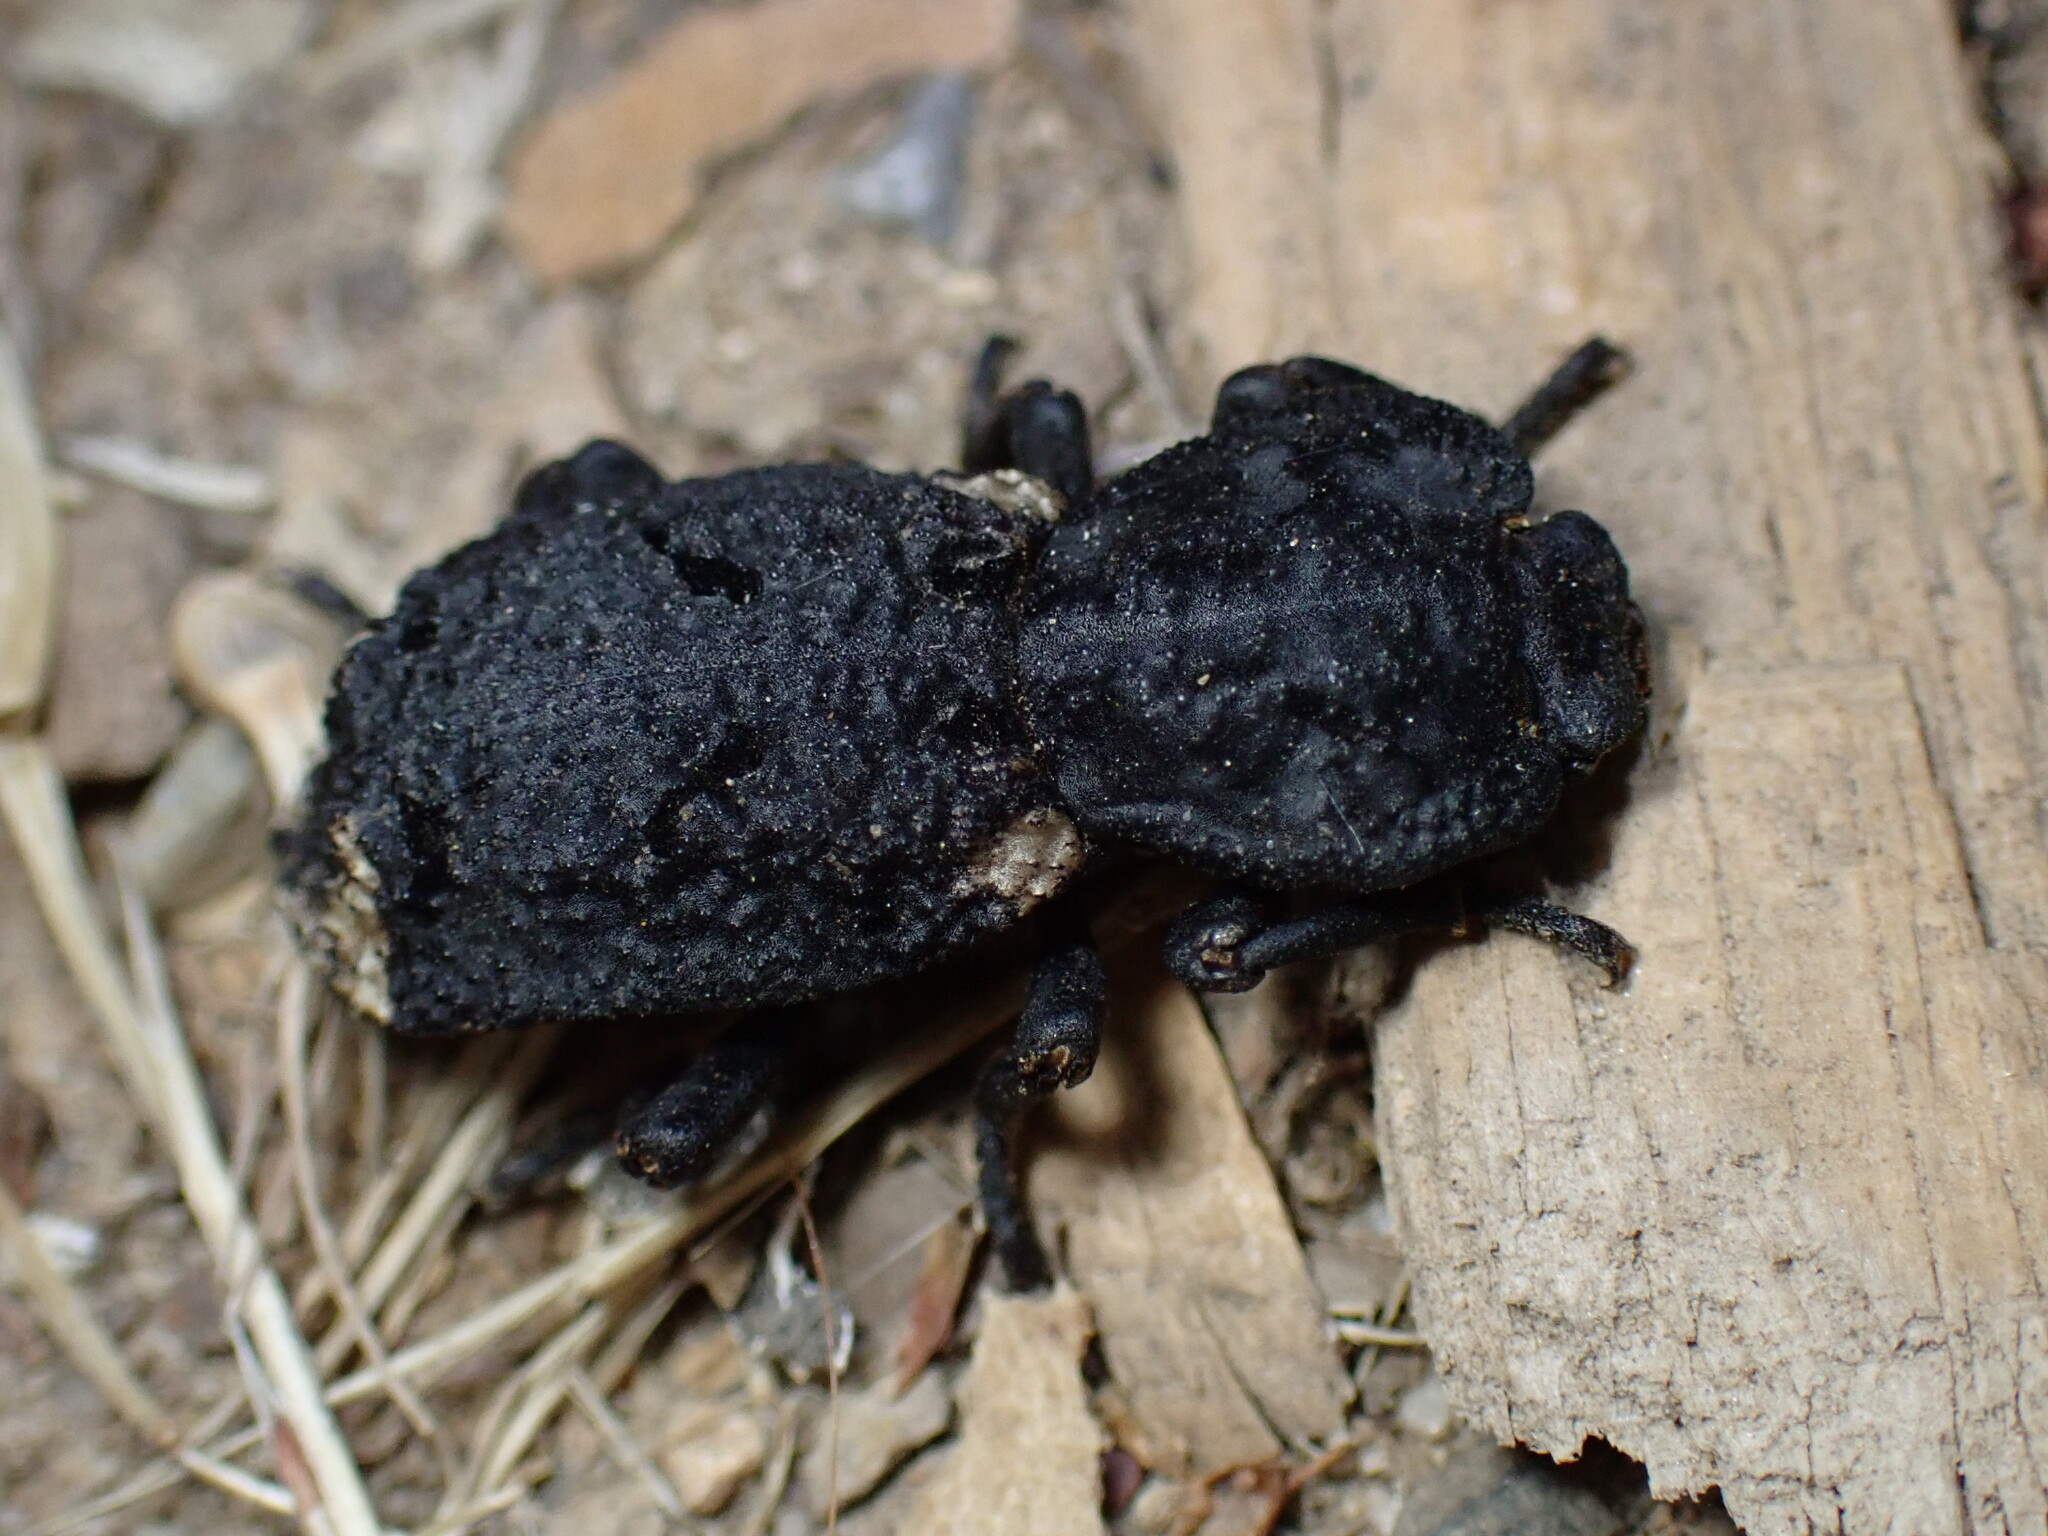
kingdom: Animalia
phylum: Arthropoda
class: Insecta
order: Coleoptera
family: Zopheridae
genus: Phloeodes
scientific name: Phloeodes diabolicus
